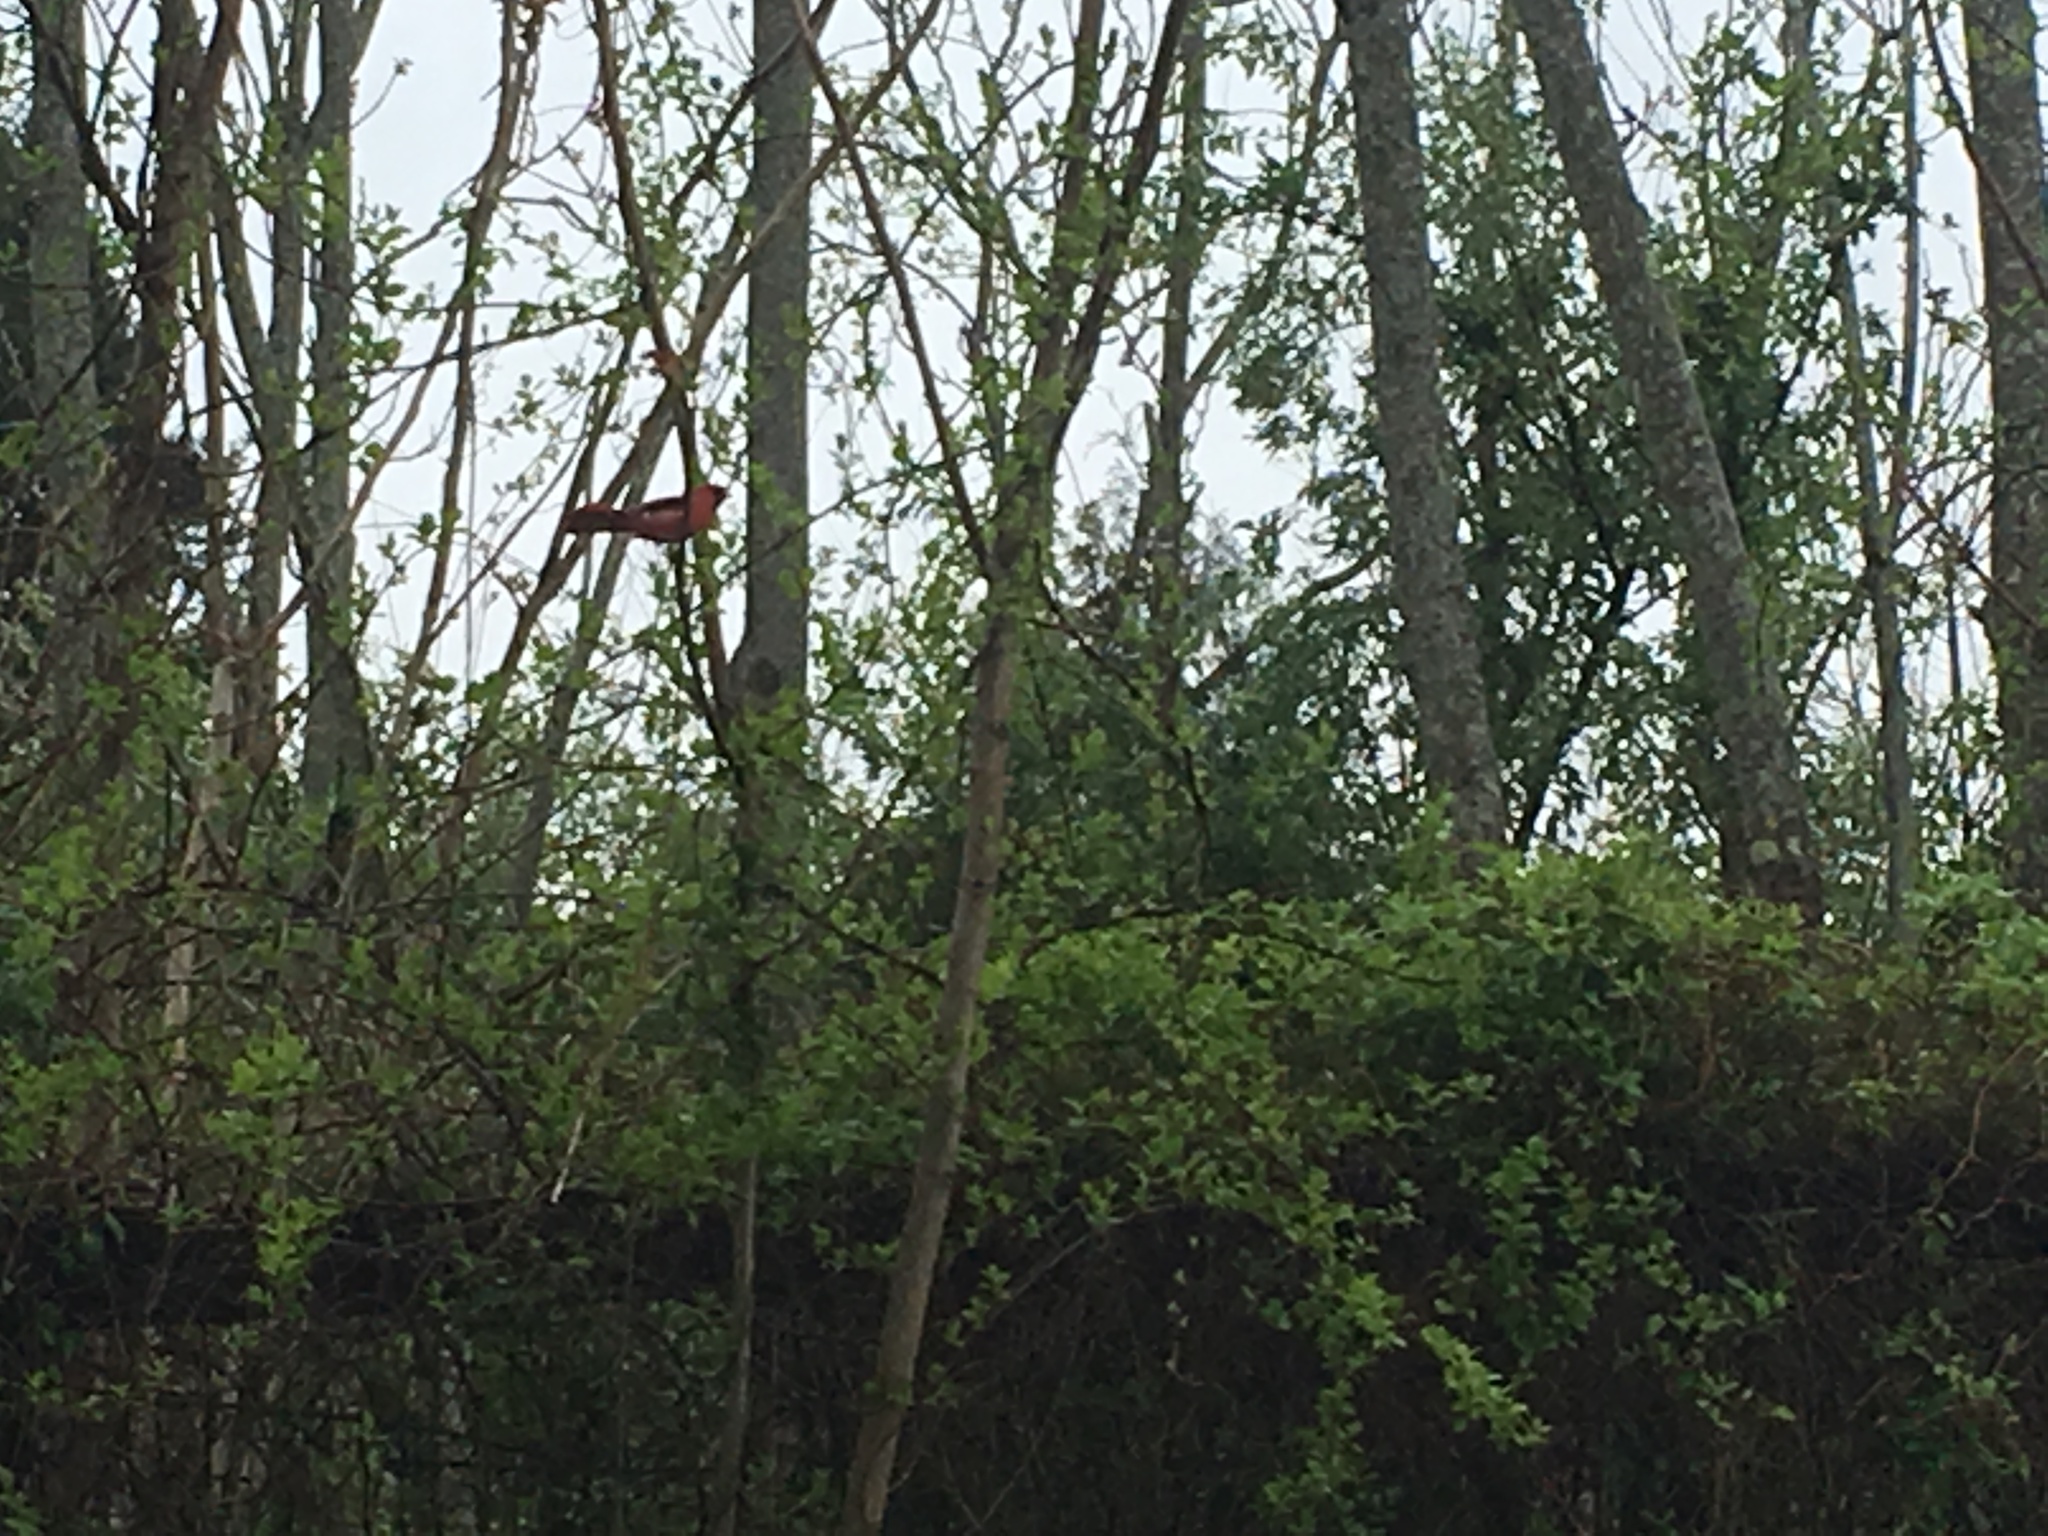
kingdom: Animalia
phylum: Chordata
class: Aves
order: Passeriformes
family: Cardinalidae
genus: Cardinalis
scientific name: Cardinalis cardinalis
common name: Northern cardinal
